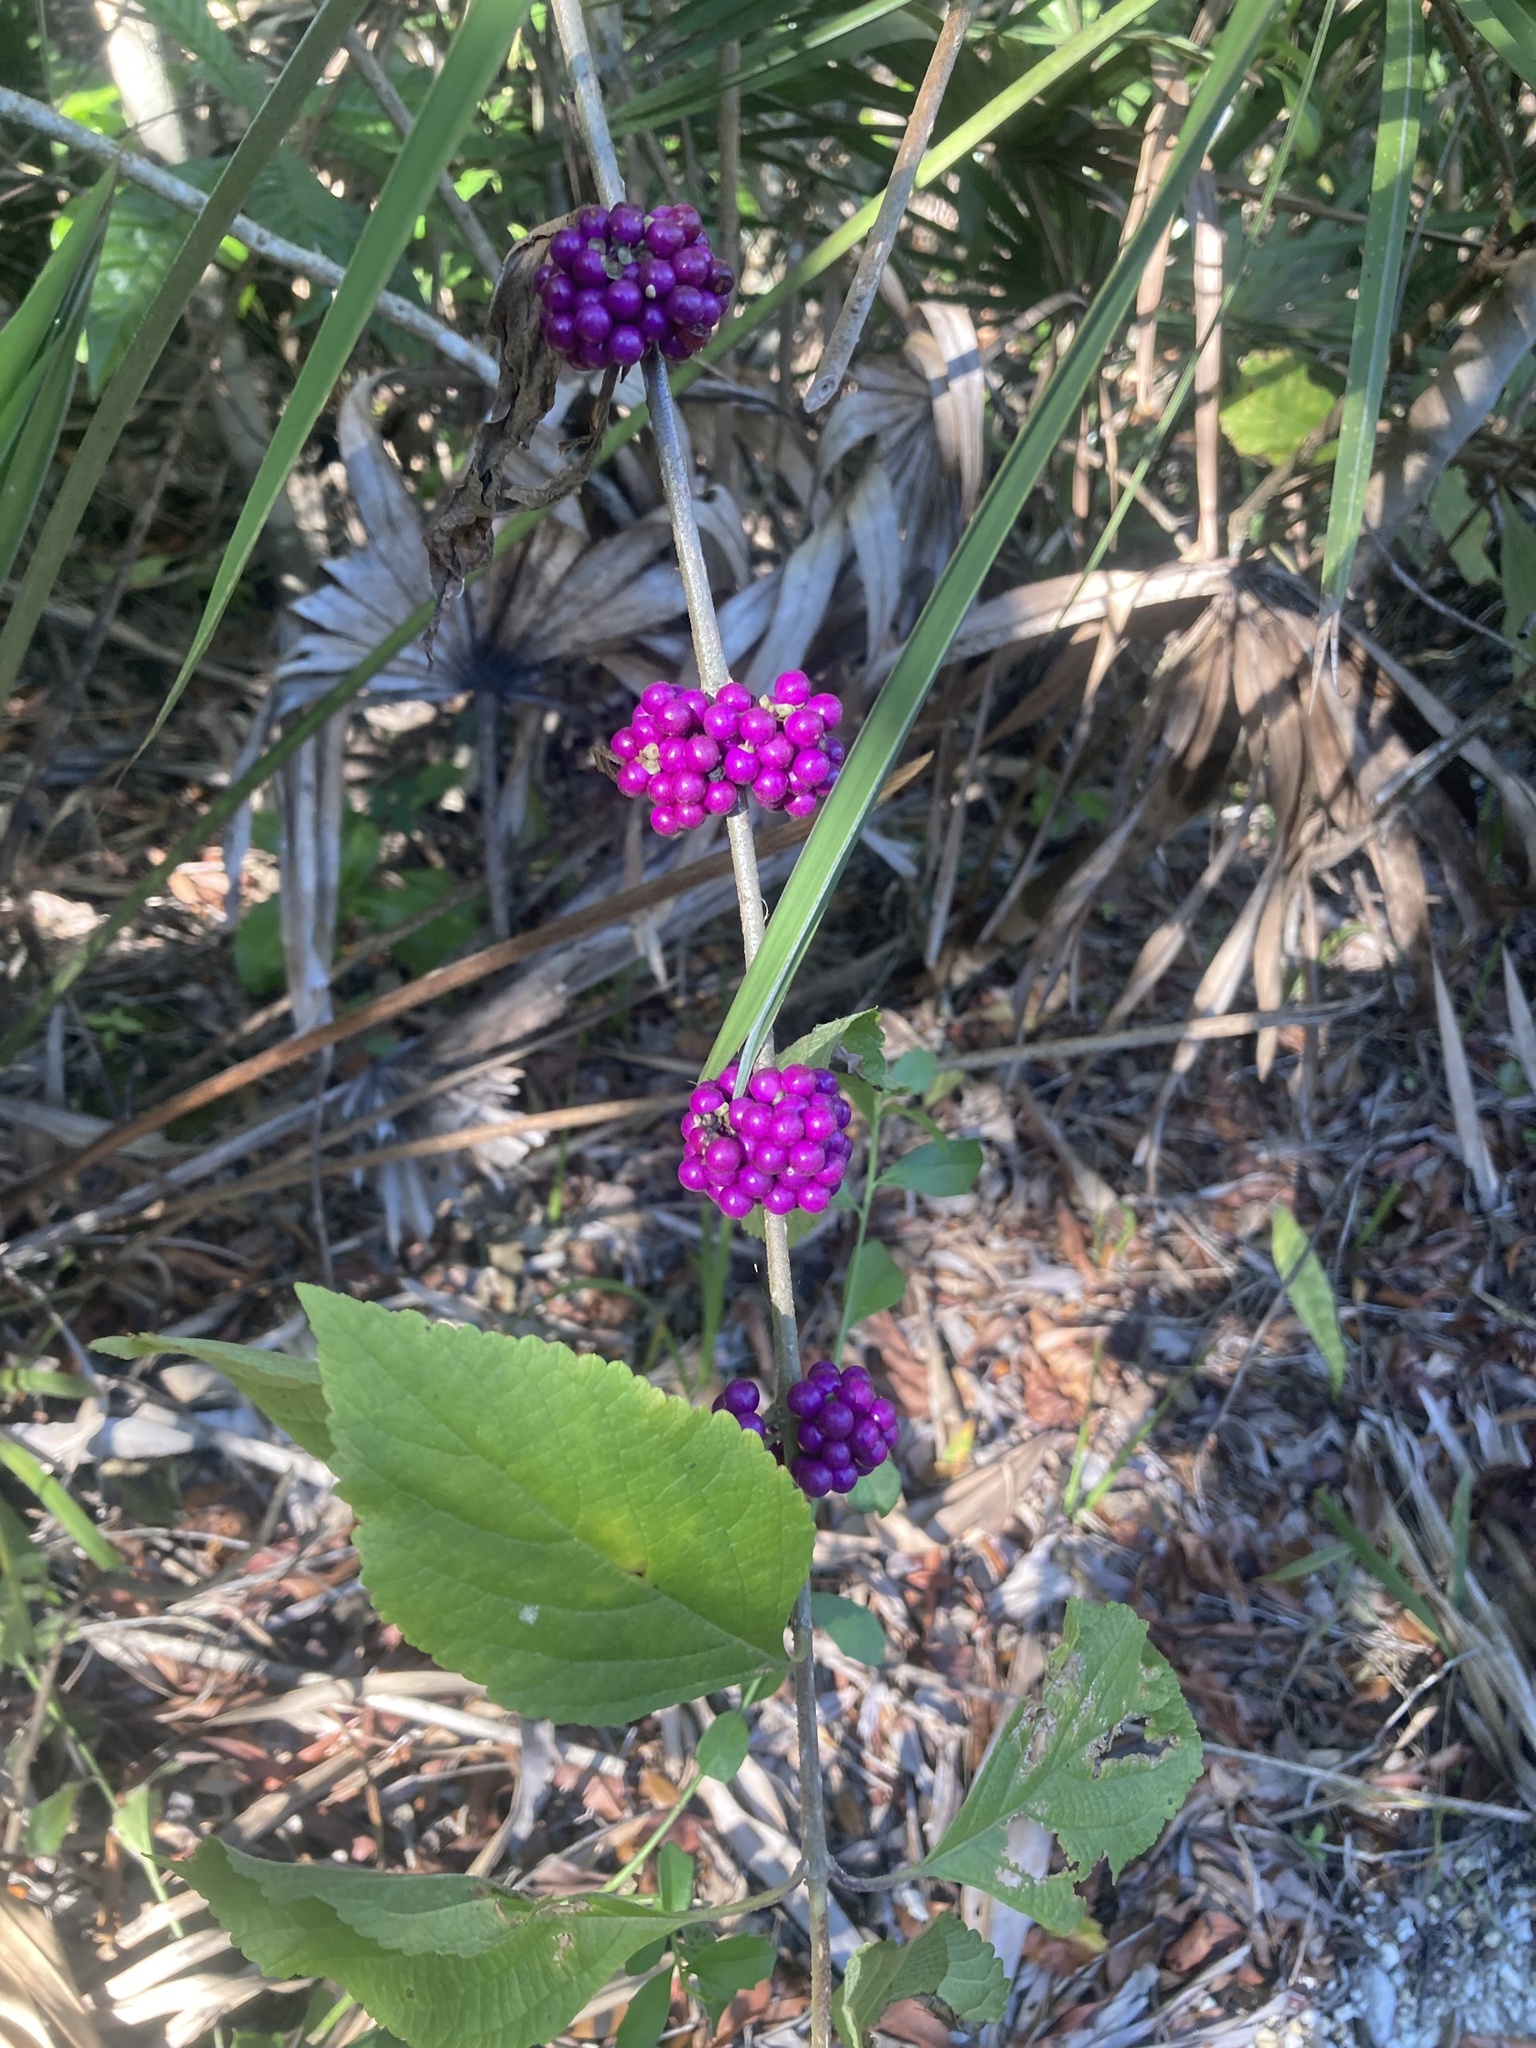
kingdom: Plantae
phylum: Tracheophyta
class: Magnoliopsida
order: Lamiales
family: Lamiaceae
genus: Callicarpa
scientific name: Callicarpa americana
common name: American beautyberry
